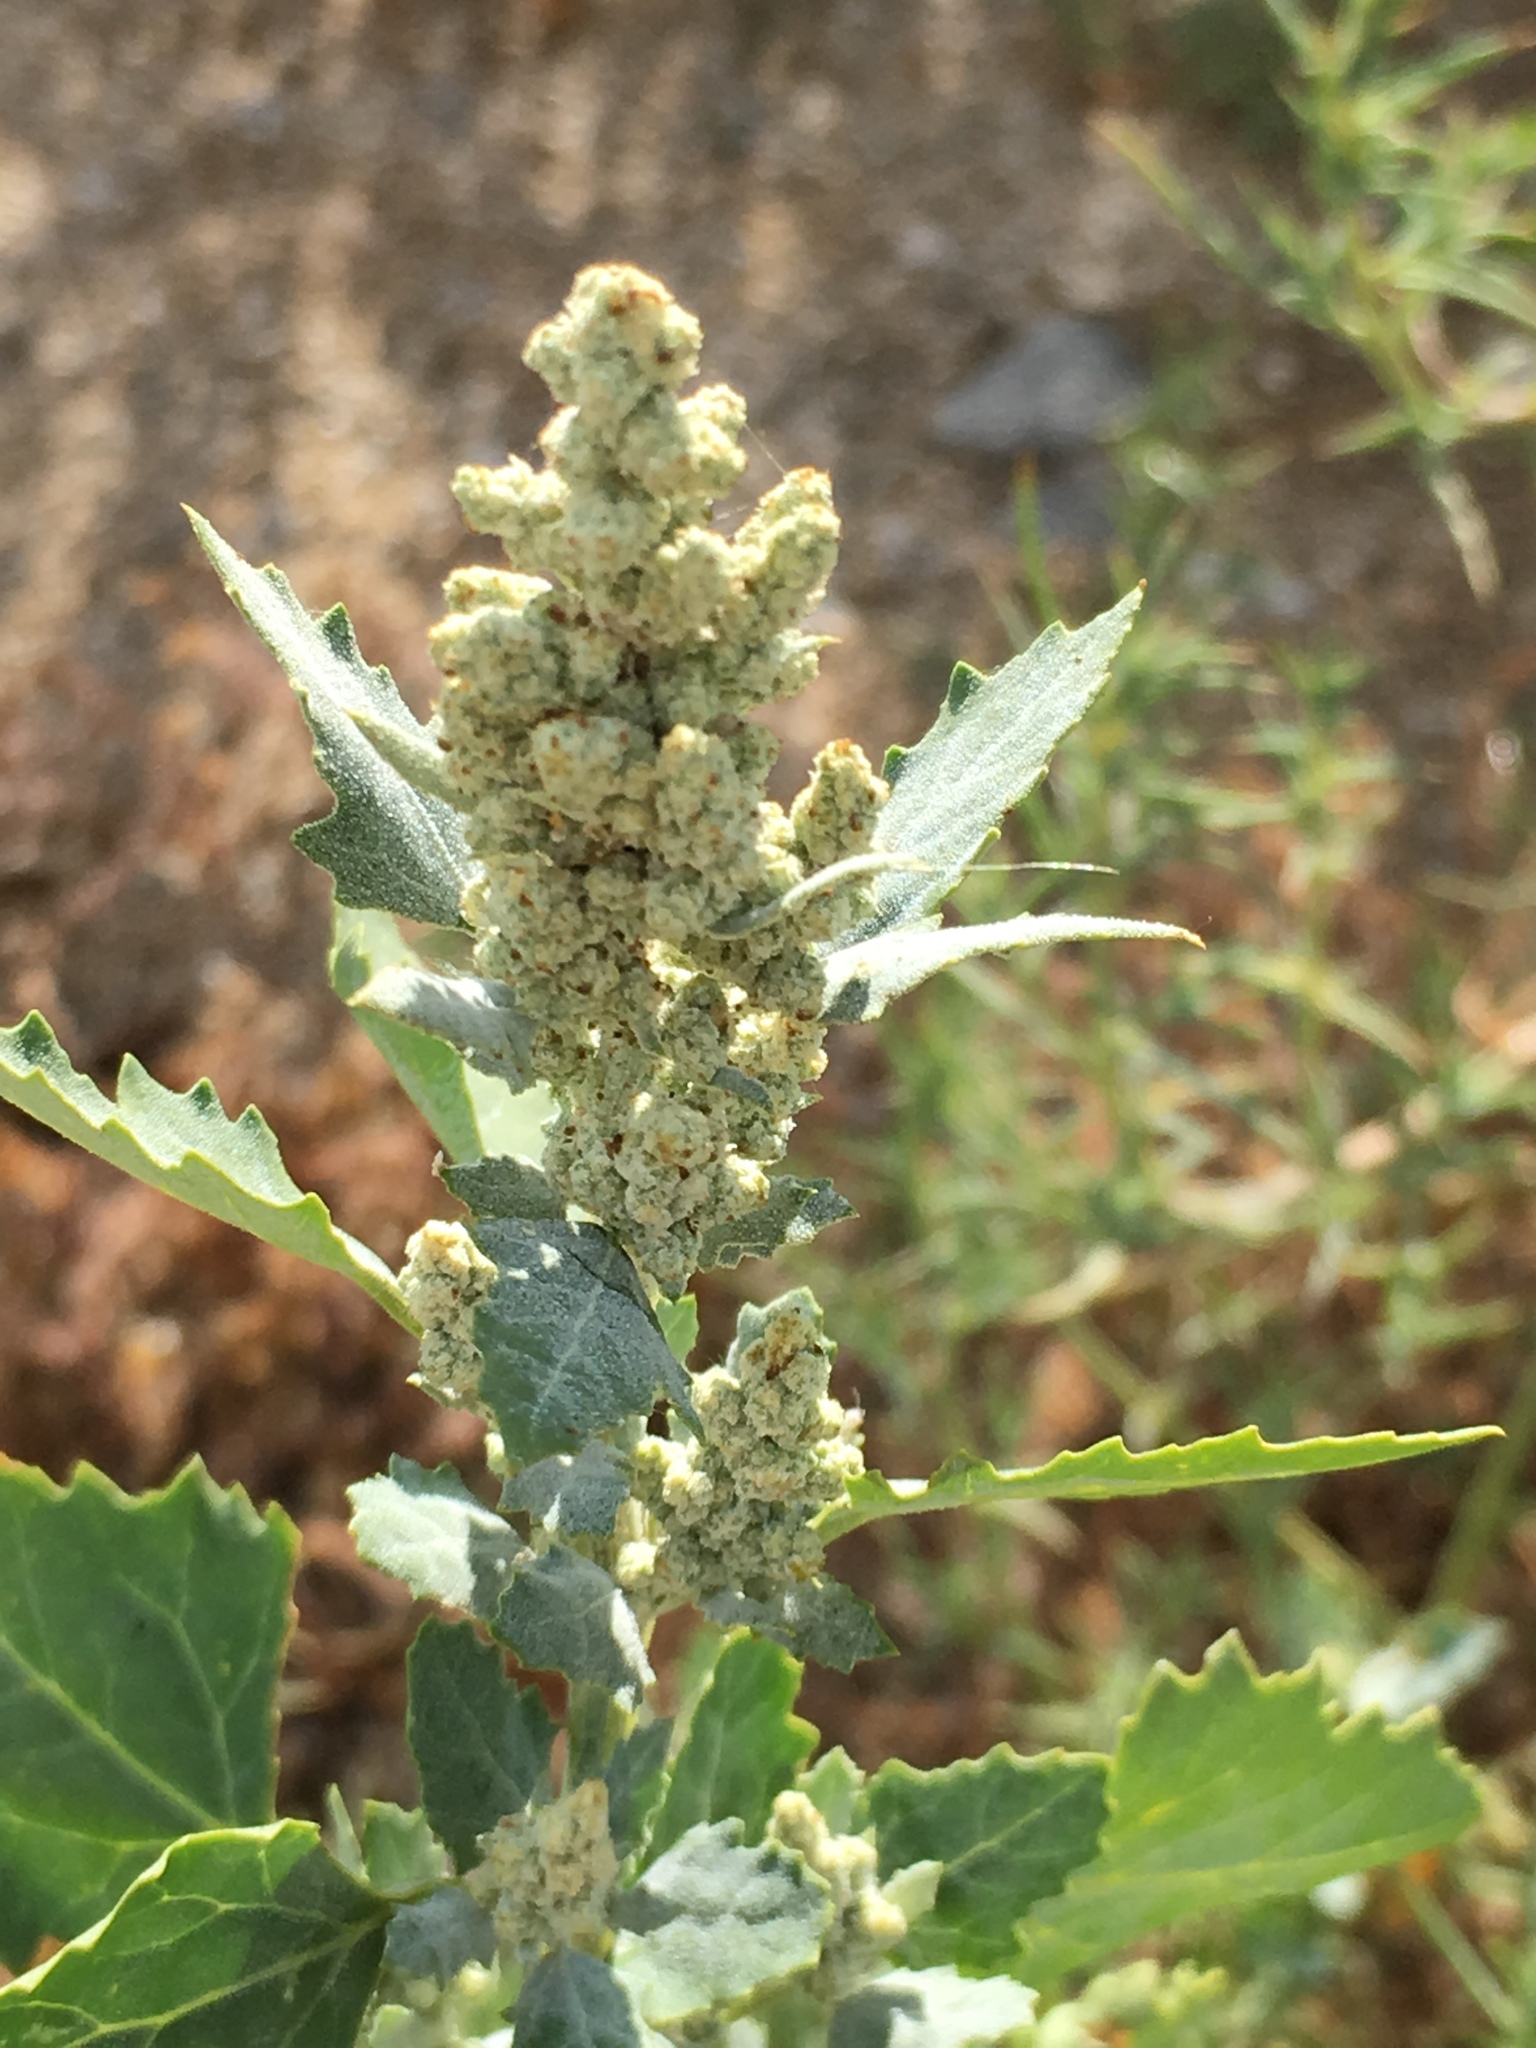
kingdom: Plantae
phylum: Tracheophyta
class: Magnoliopsida
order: Caryophyllales
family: Amaranthaceae
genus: Chenopodiastrum
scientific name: Chenopodiastrum murale
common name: Sowbane
